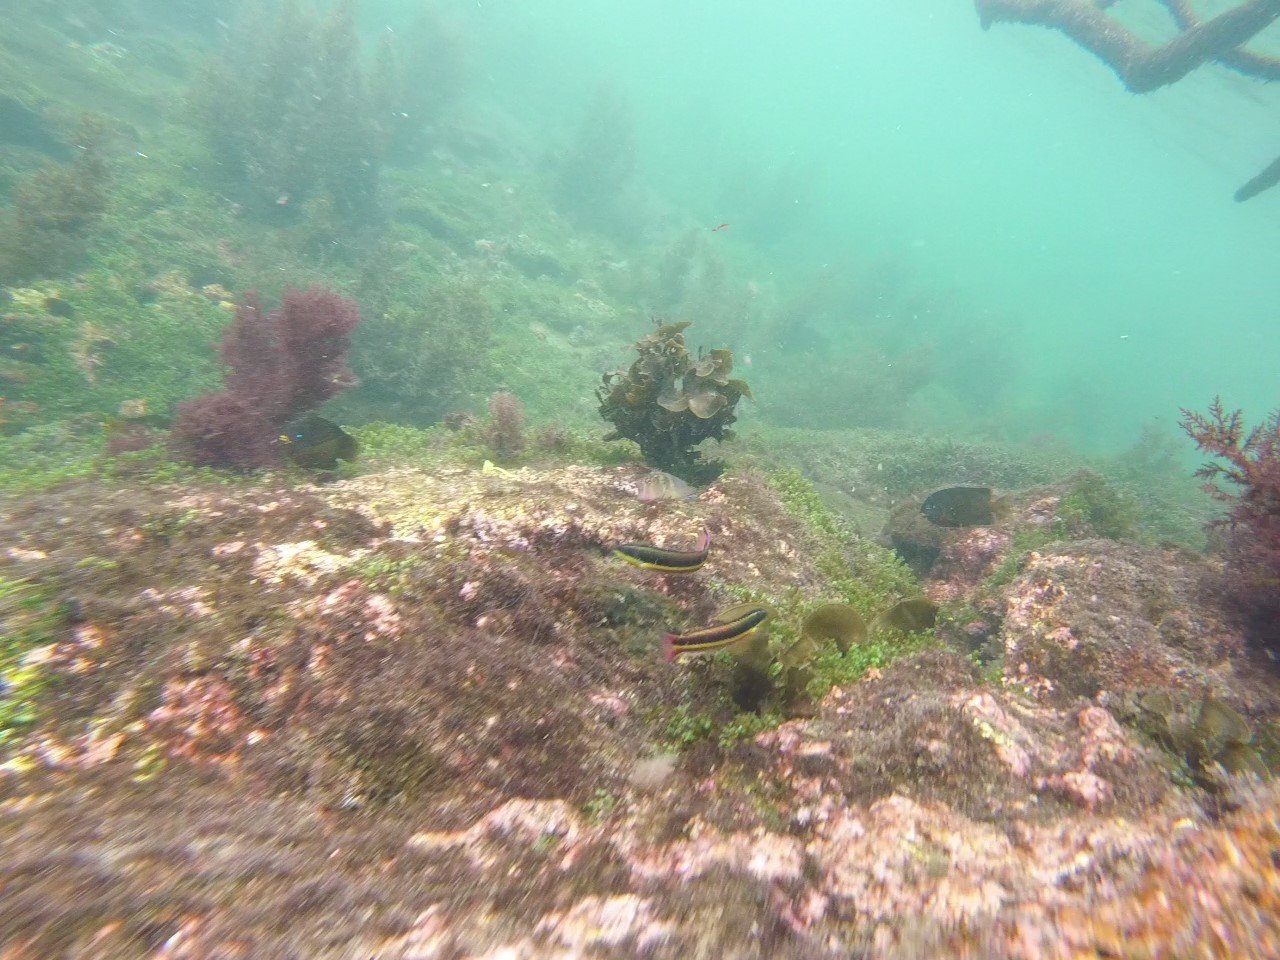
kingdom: Animalia
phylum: Chordata
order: Perciformes
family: Labridae
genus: Thalassoma
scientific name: Thalassoma lucasanum
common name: Cortez rainbow wrasse
